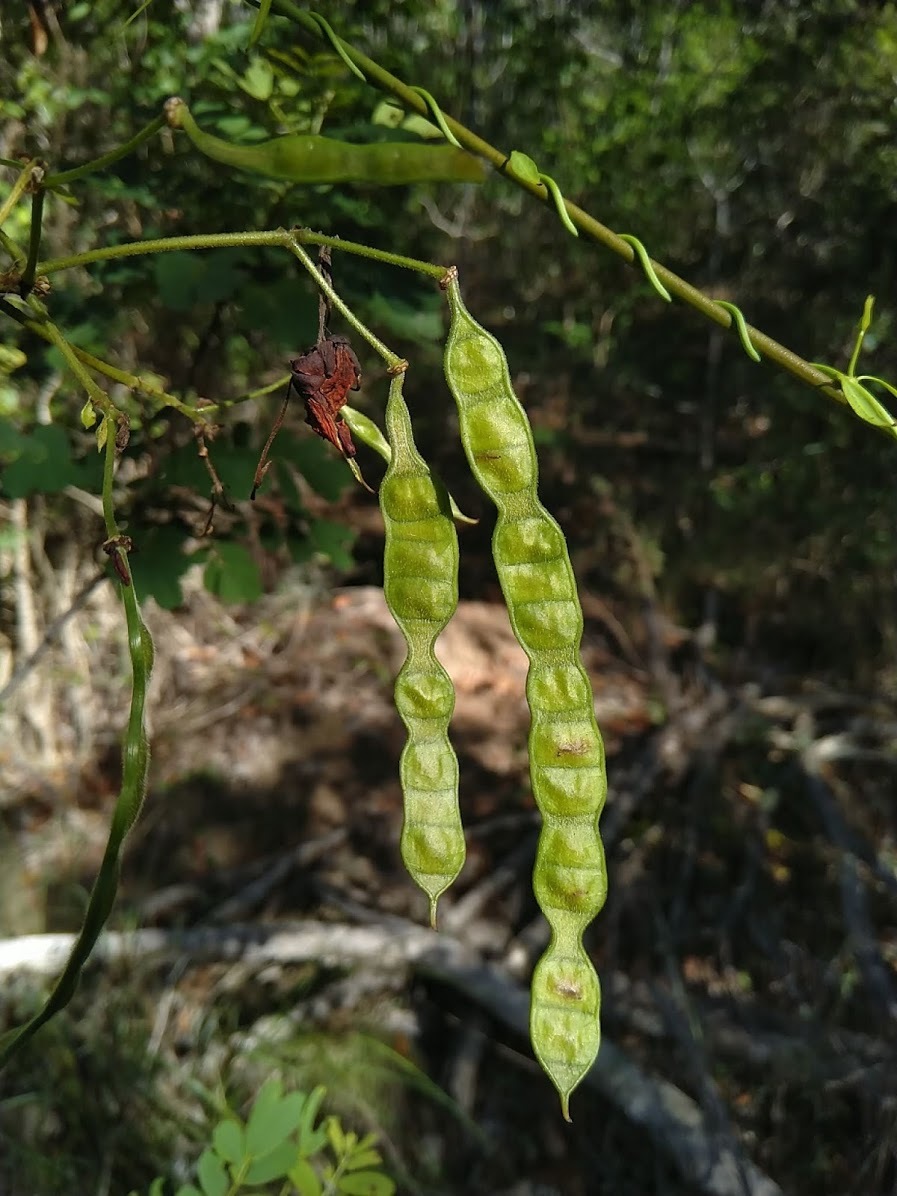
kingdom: Plantae
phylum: Tracheophyta
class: Magnoliopsida
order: Fabales
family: Fabaceae
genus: Senna
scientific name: Senna gaudichaudii
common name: Climbing cassia
